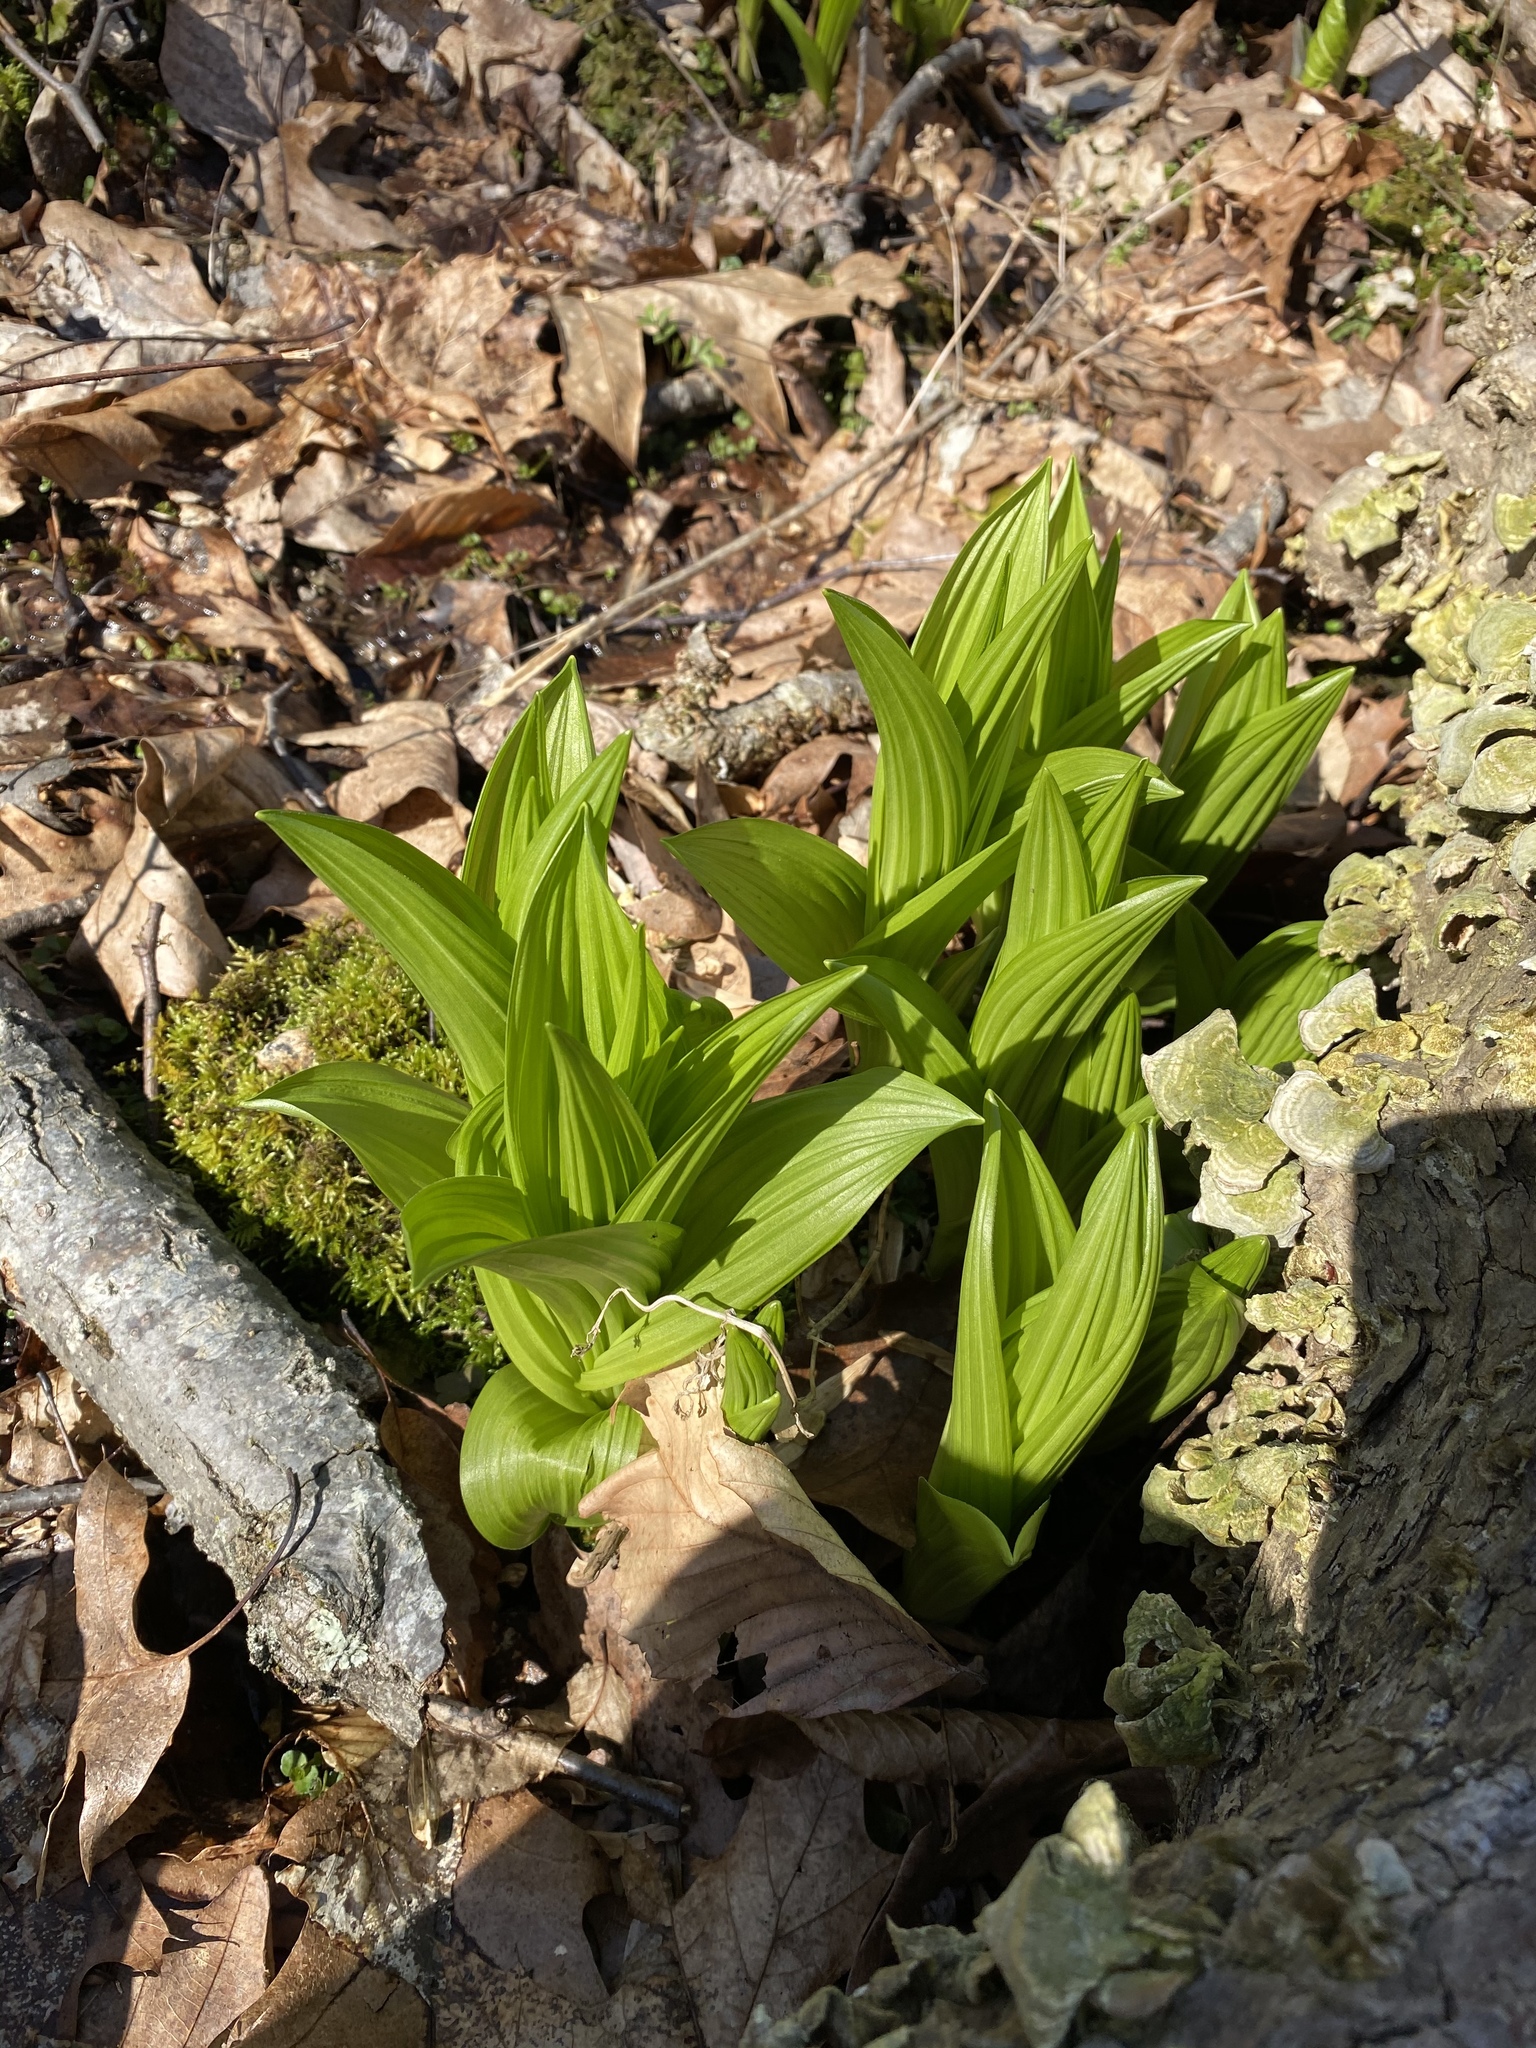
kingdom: Plantae
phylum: Tracheophyta
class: Liliopsida
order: Liliales
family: Melanthiaceae
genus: Veratrum
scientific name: Veratrum viride
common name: American false hellebore
